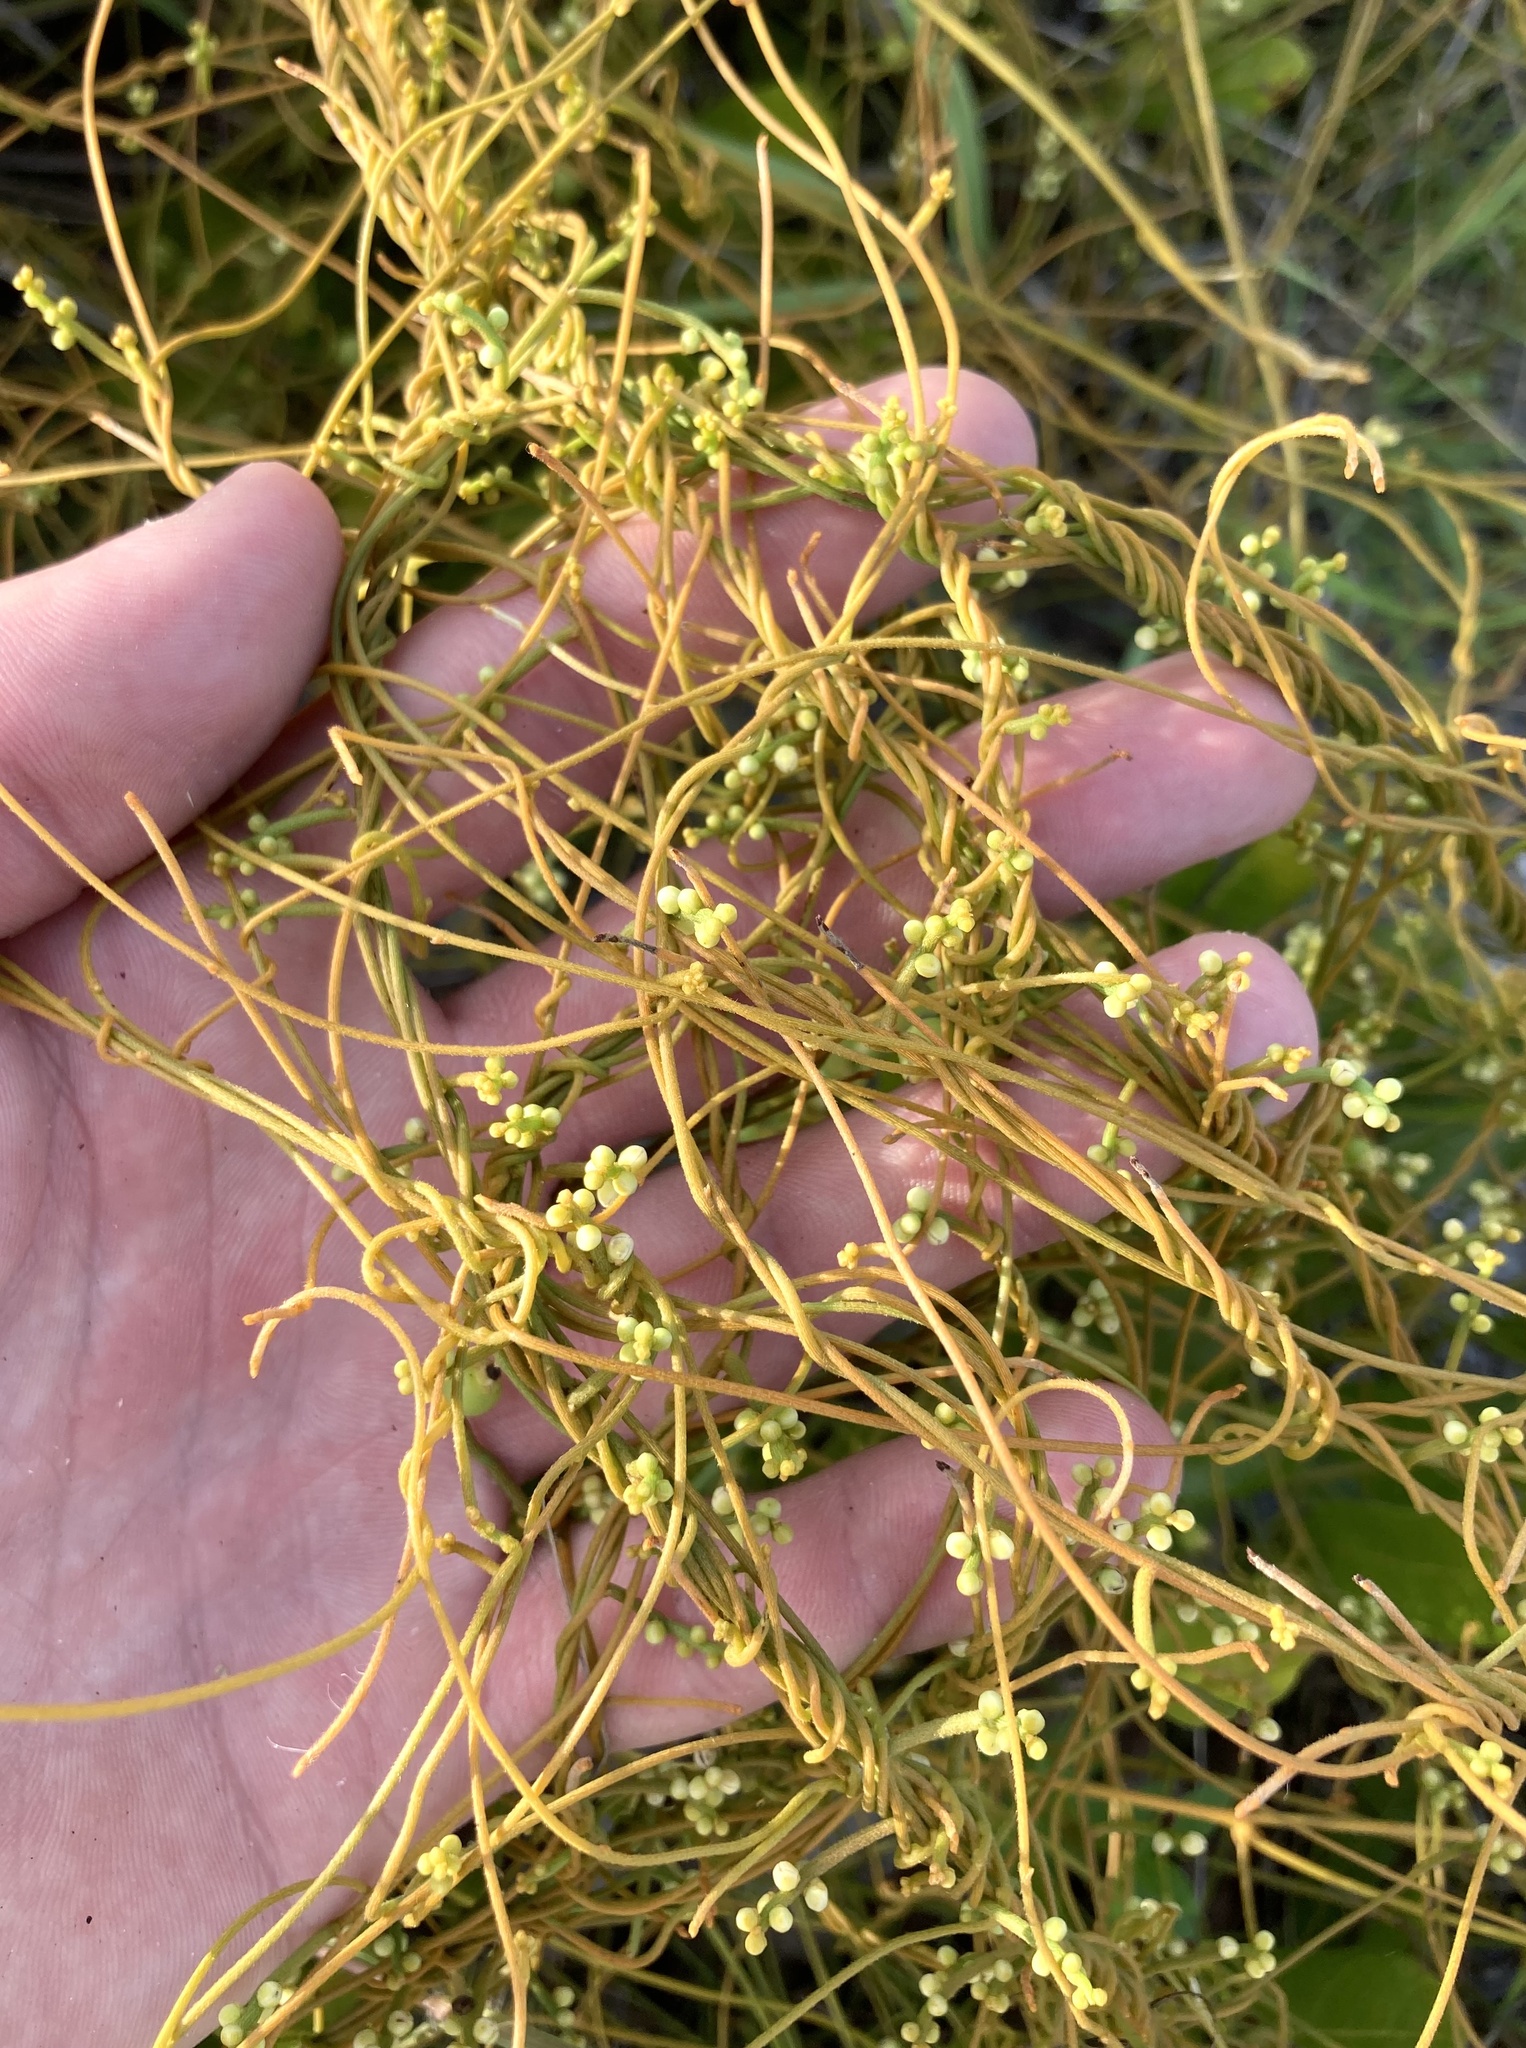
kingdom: Plantae
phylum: Tracheophyta
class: Magnoliopsida
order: Laurales
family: Lauraceae
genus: Cassytha
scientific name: Cassytha filiformis
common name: Dodder-laurel
